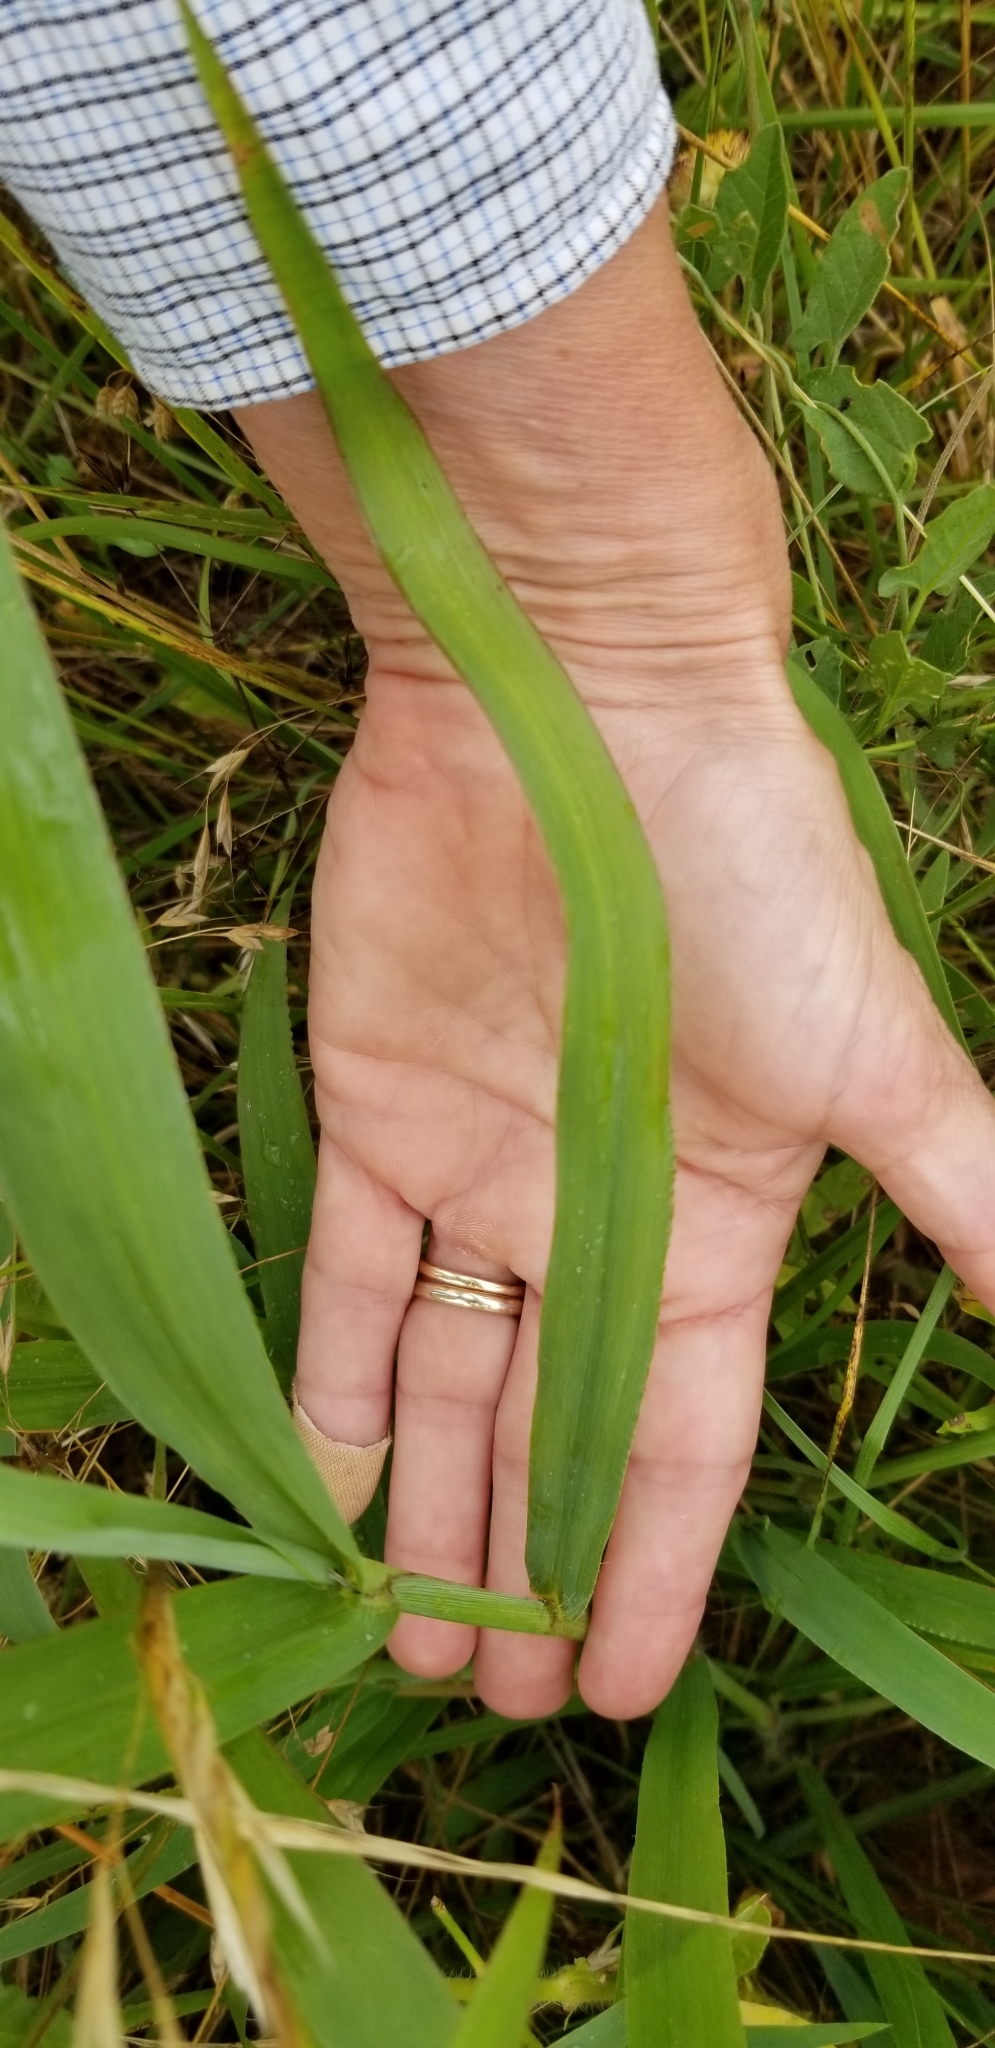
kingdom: Plantae
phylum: Tracheophyta
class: Liliopsida
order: Poales
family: Poaceae
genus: Paspalum
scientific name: Paspalum dilatatum
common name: Dallisgrass
